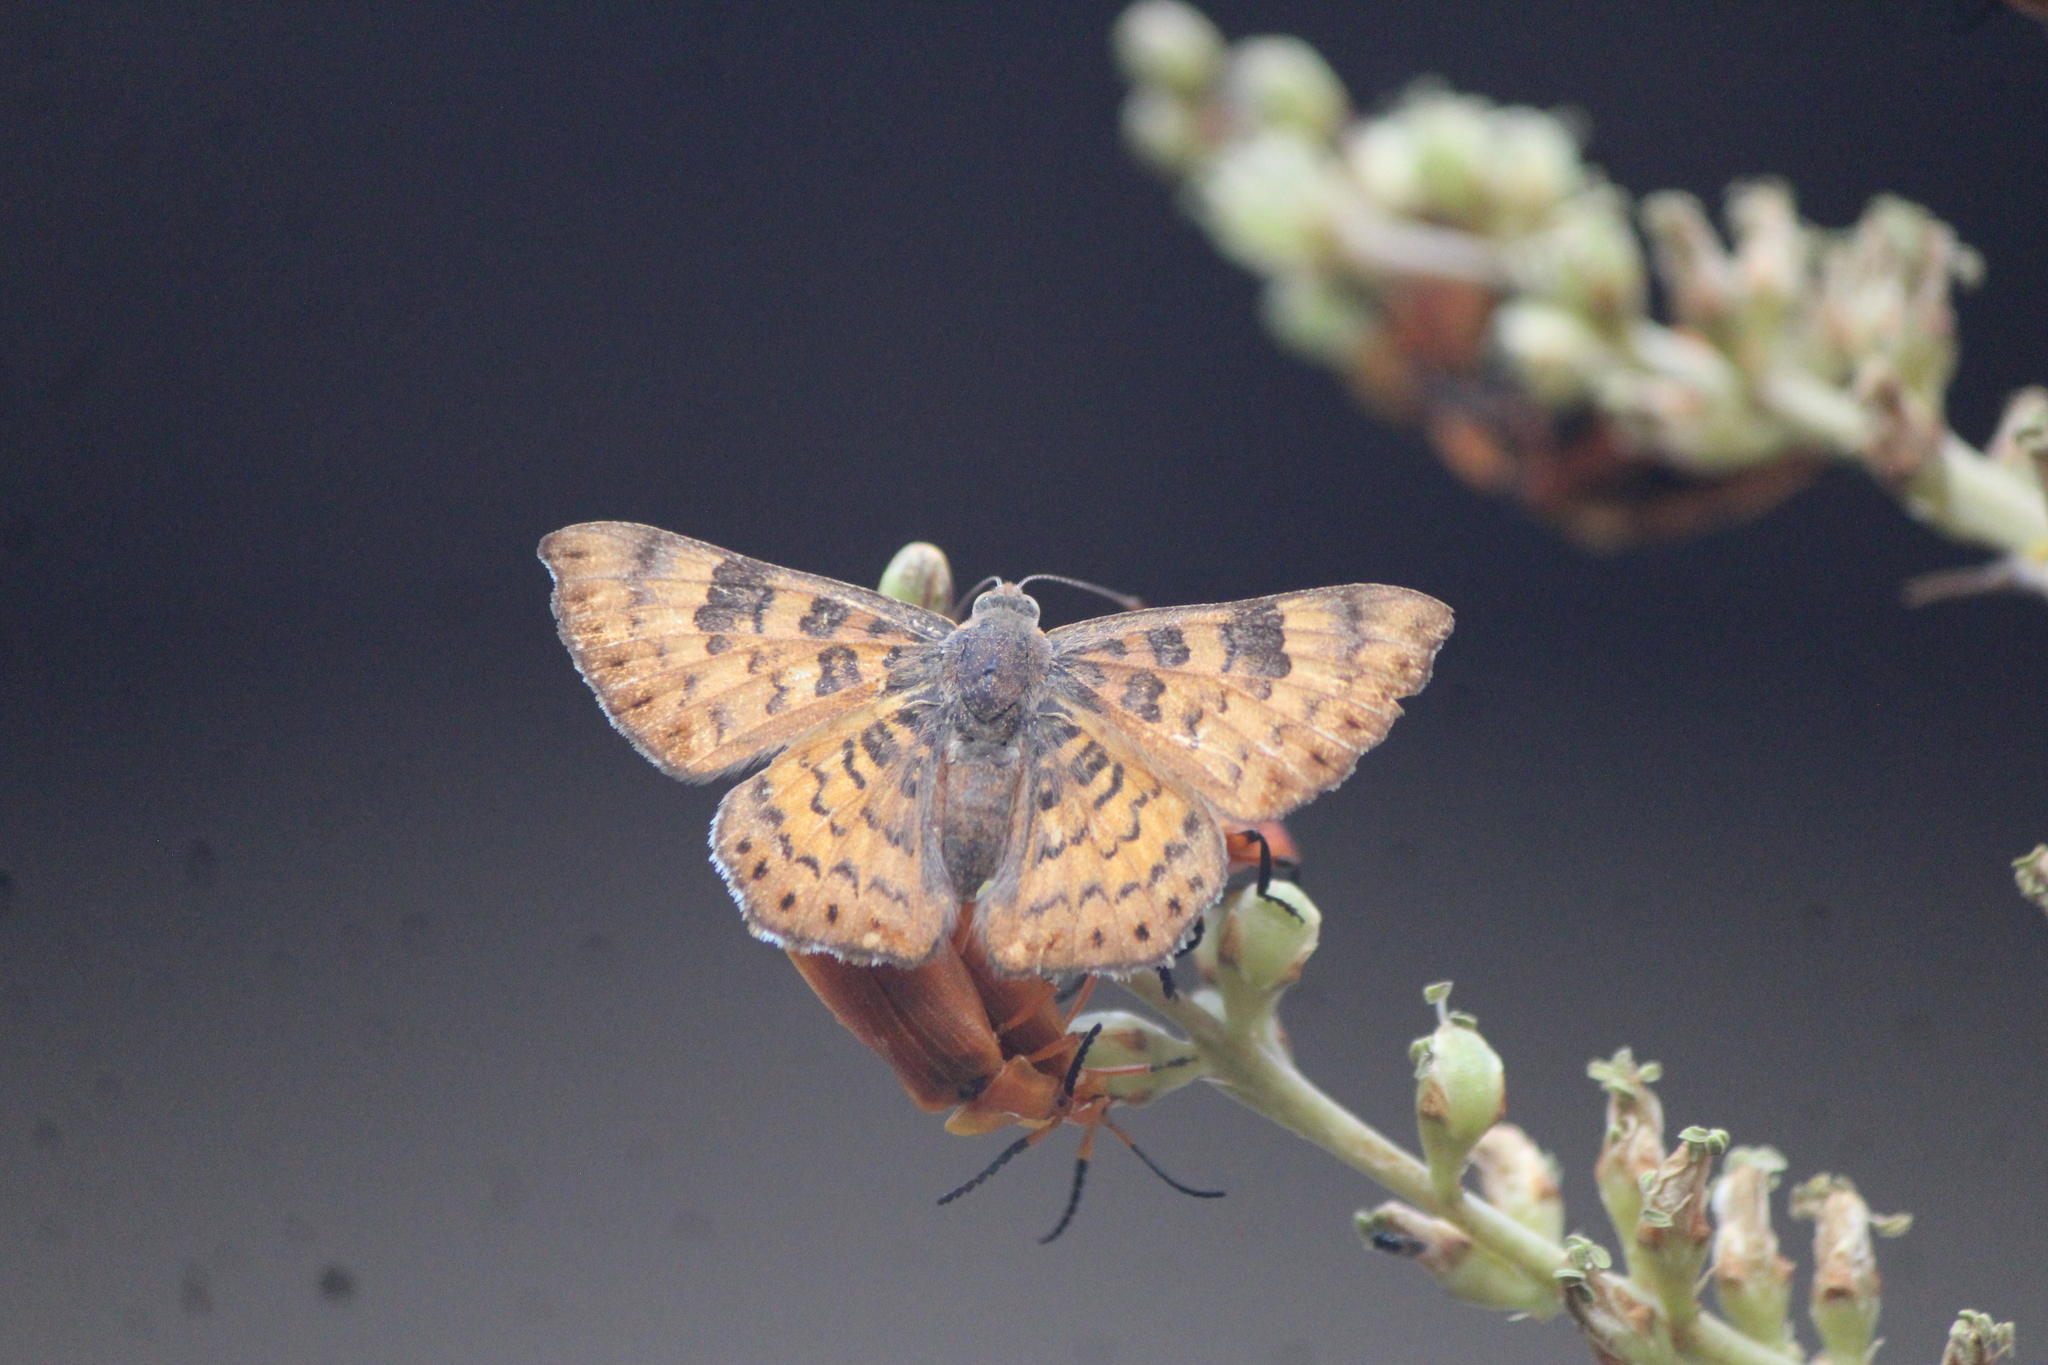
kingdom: Animalia
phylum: Arthropoda
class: Insecta
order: Lepidoptera
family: Riodinidae
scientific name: Riodinidae
